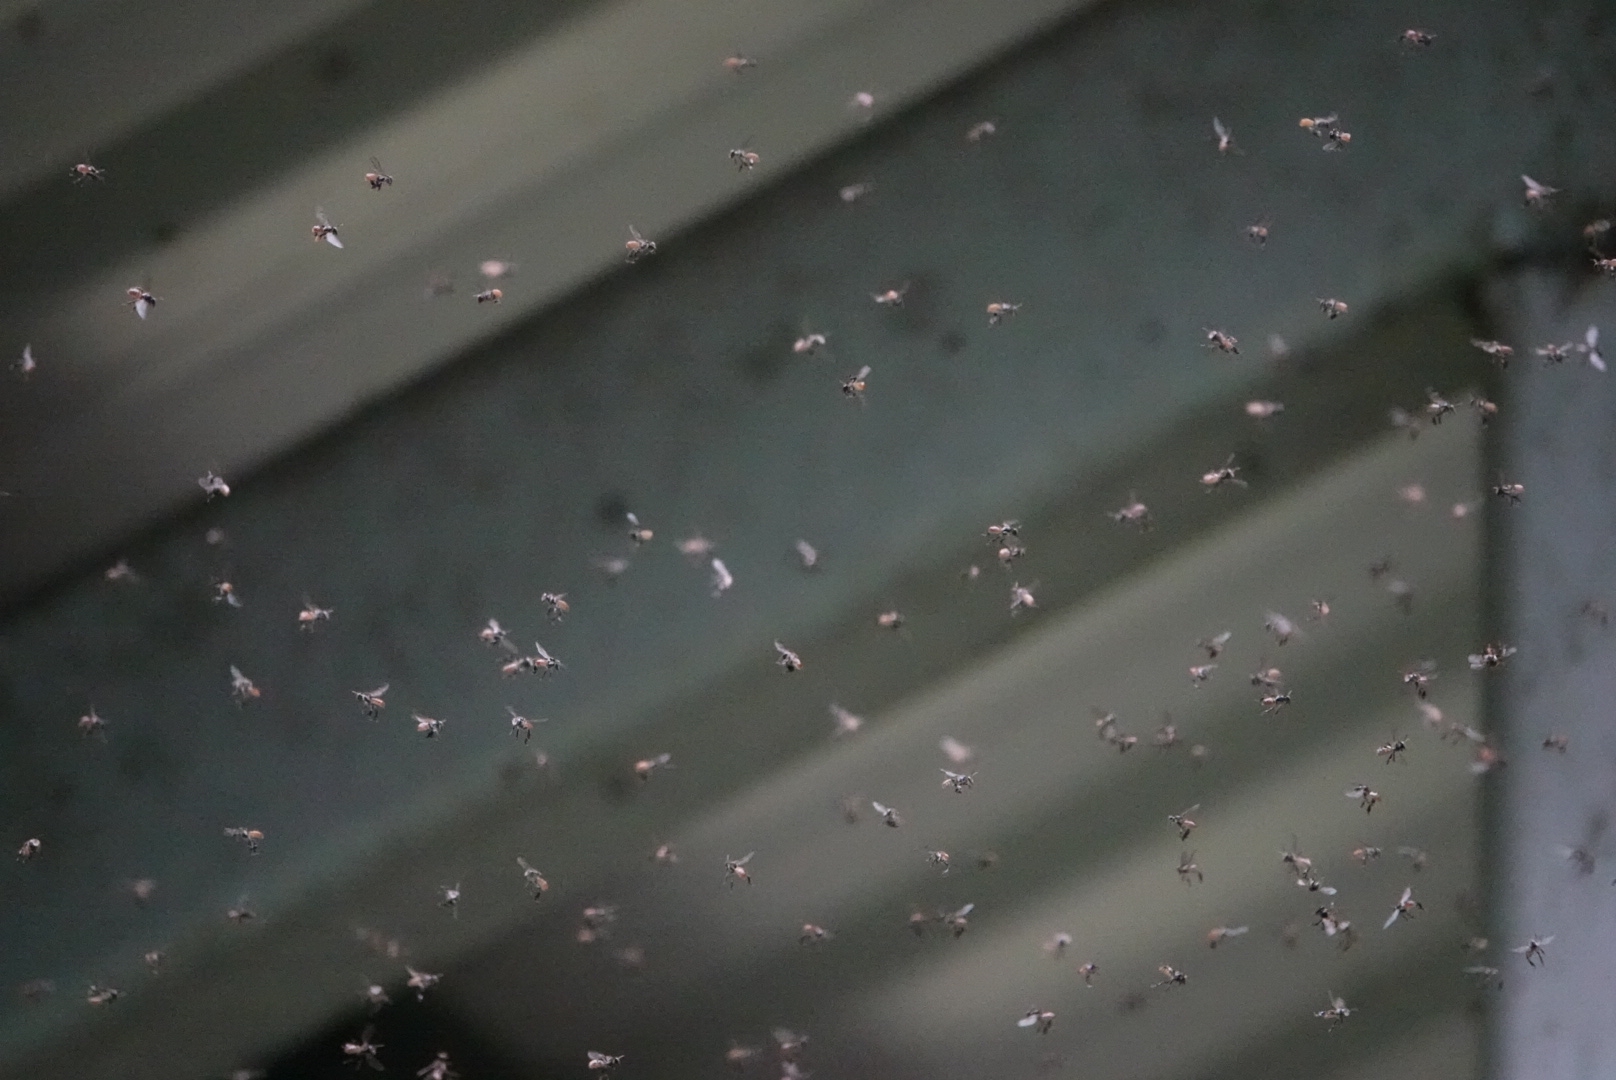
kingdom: Animalia
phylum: Arthropoda
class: Insecta
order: Hymenoptera
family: Apidae
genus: Tetragonula
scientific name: Tetragonula valdezi
